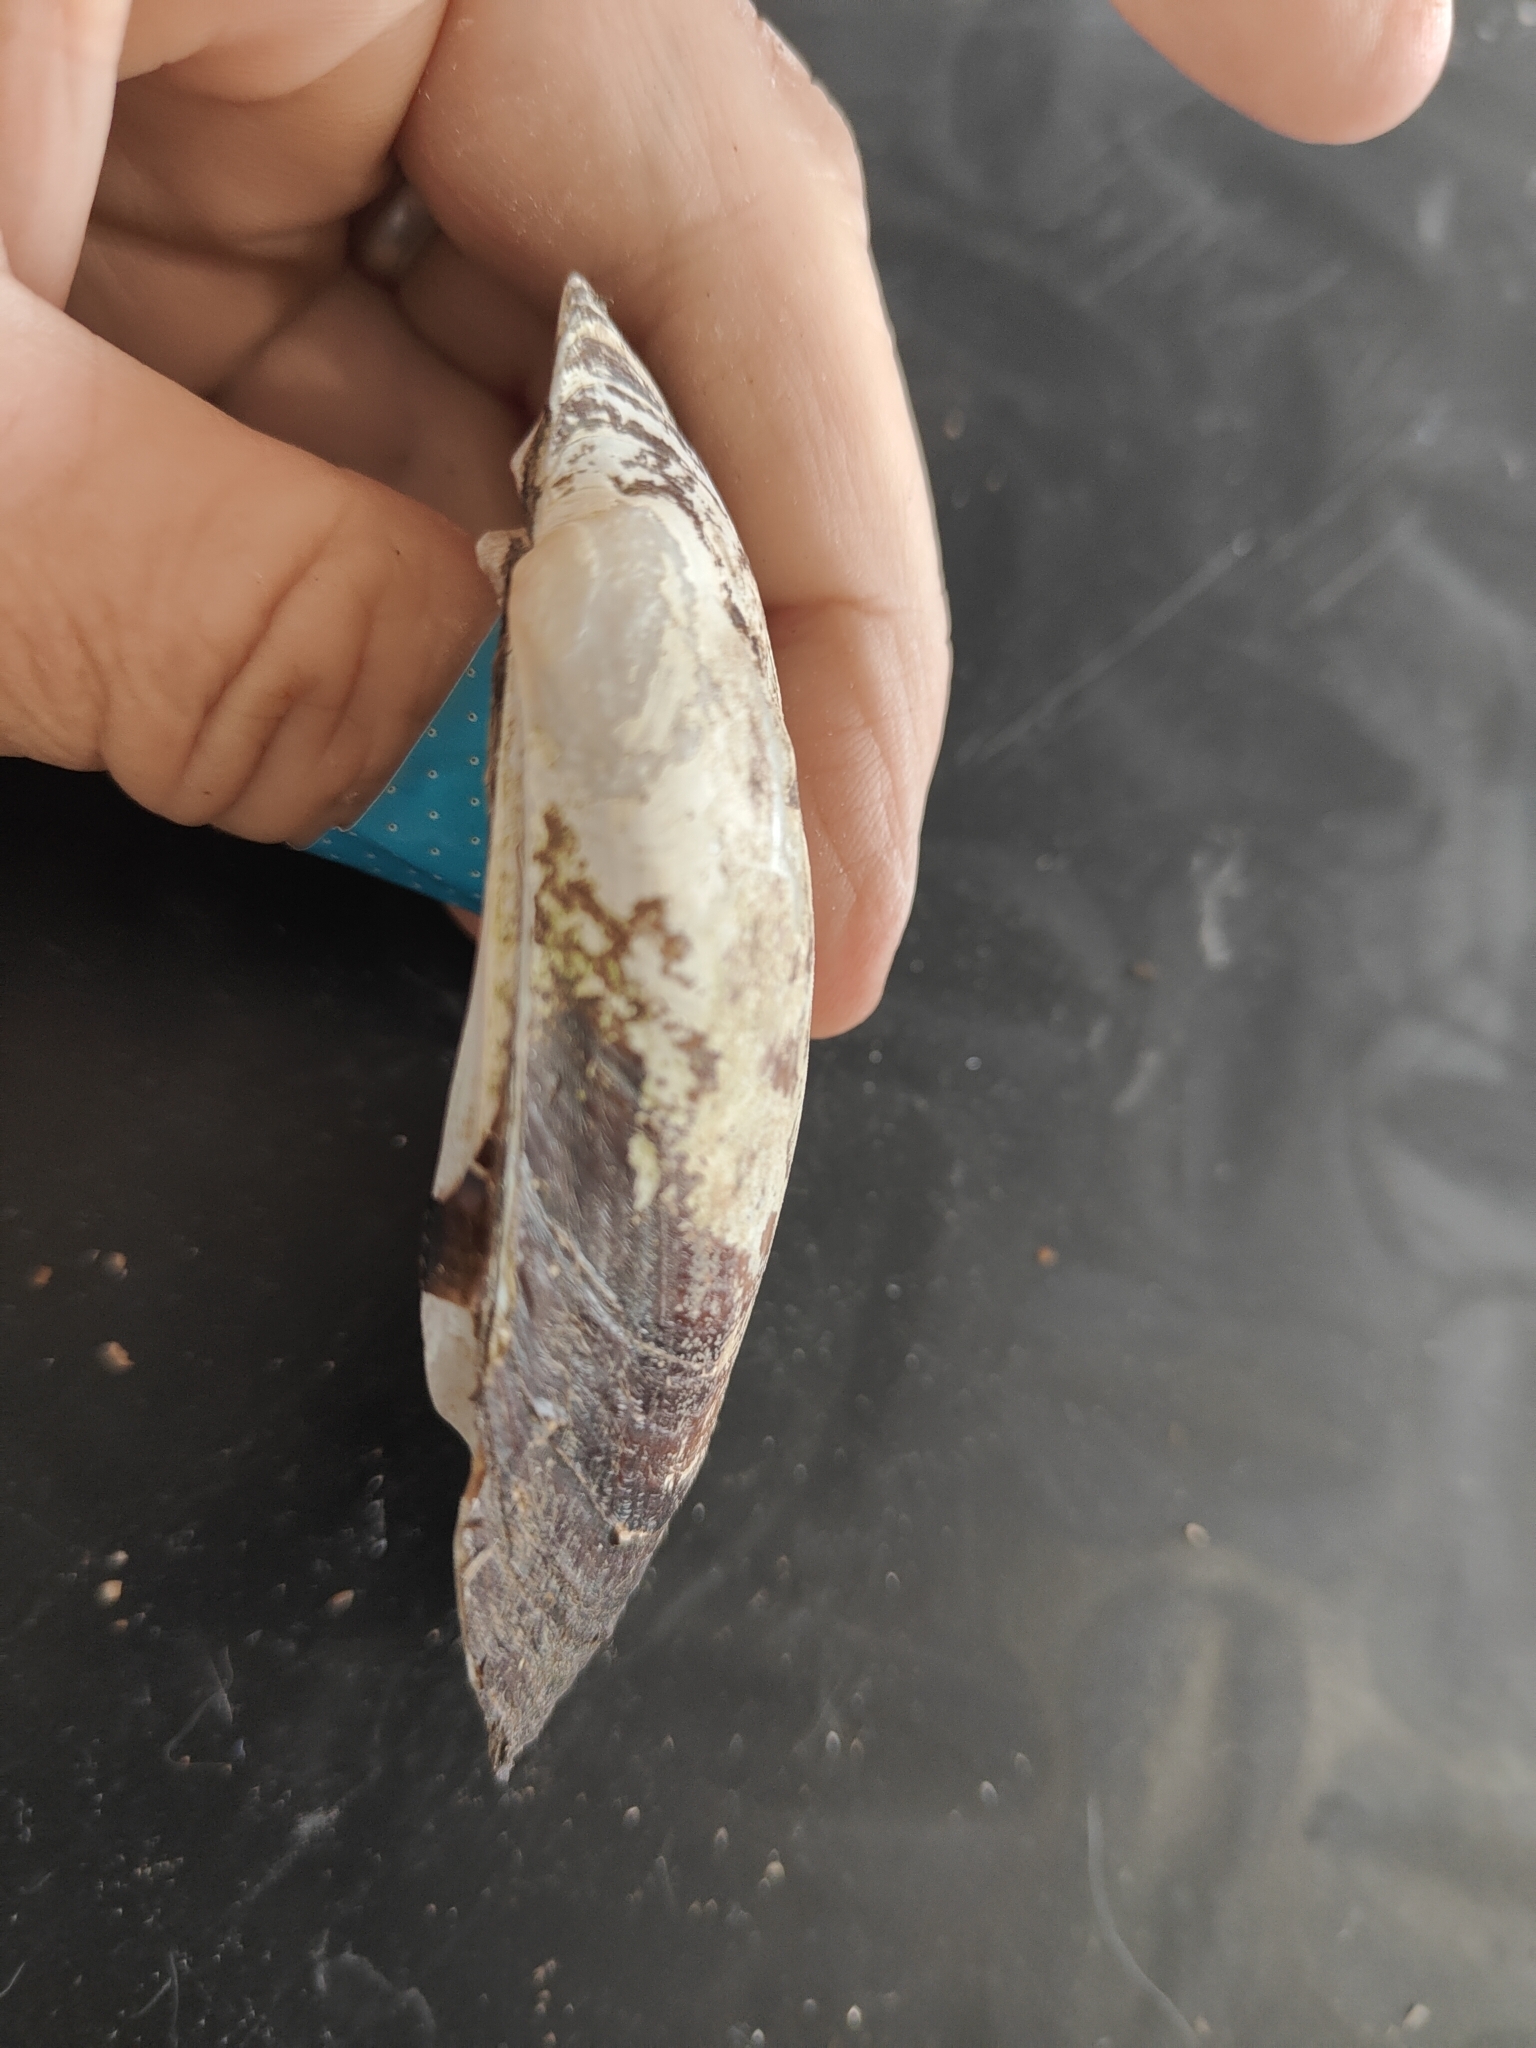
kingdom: Animalia
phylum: Mollusca
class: Bivalvia
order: Unionida
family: Unionidae
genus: Lampsilis
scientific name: Lampsilis siliquoidea
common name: Fatmucket
